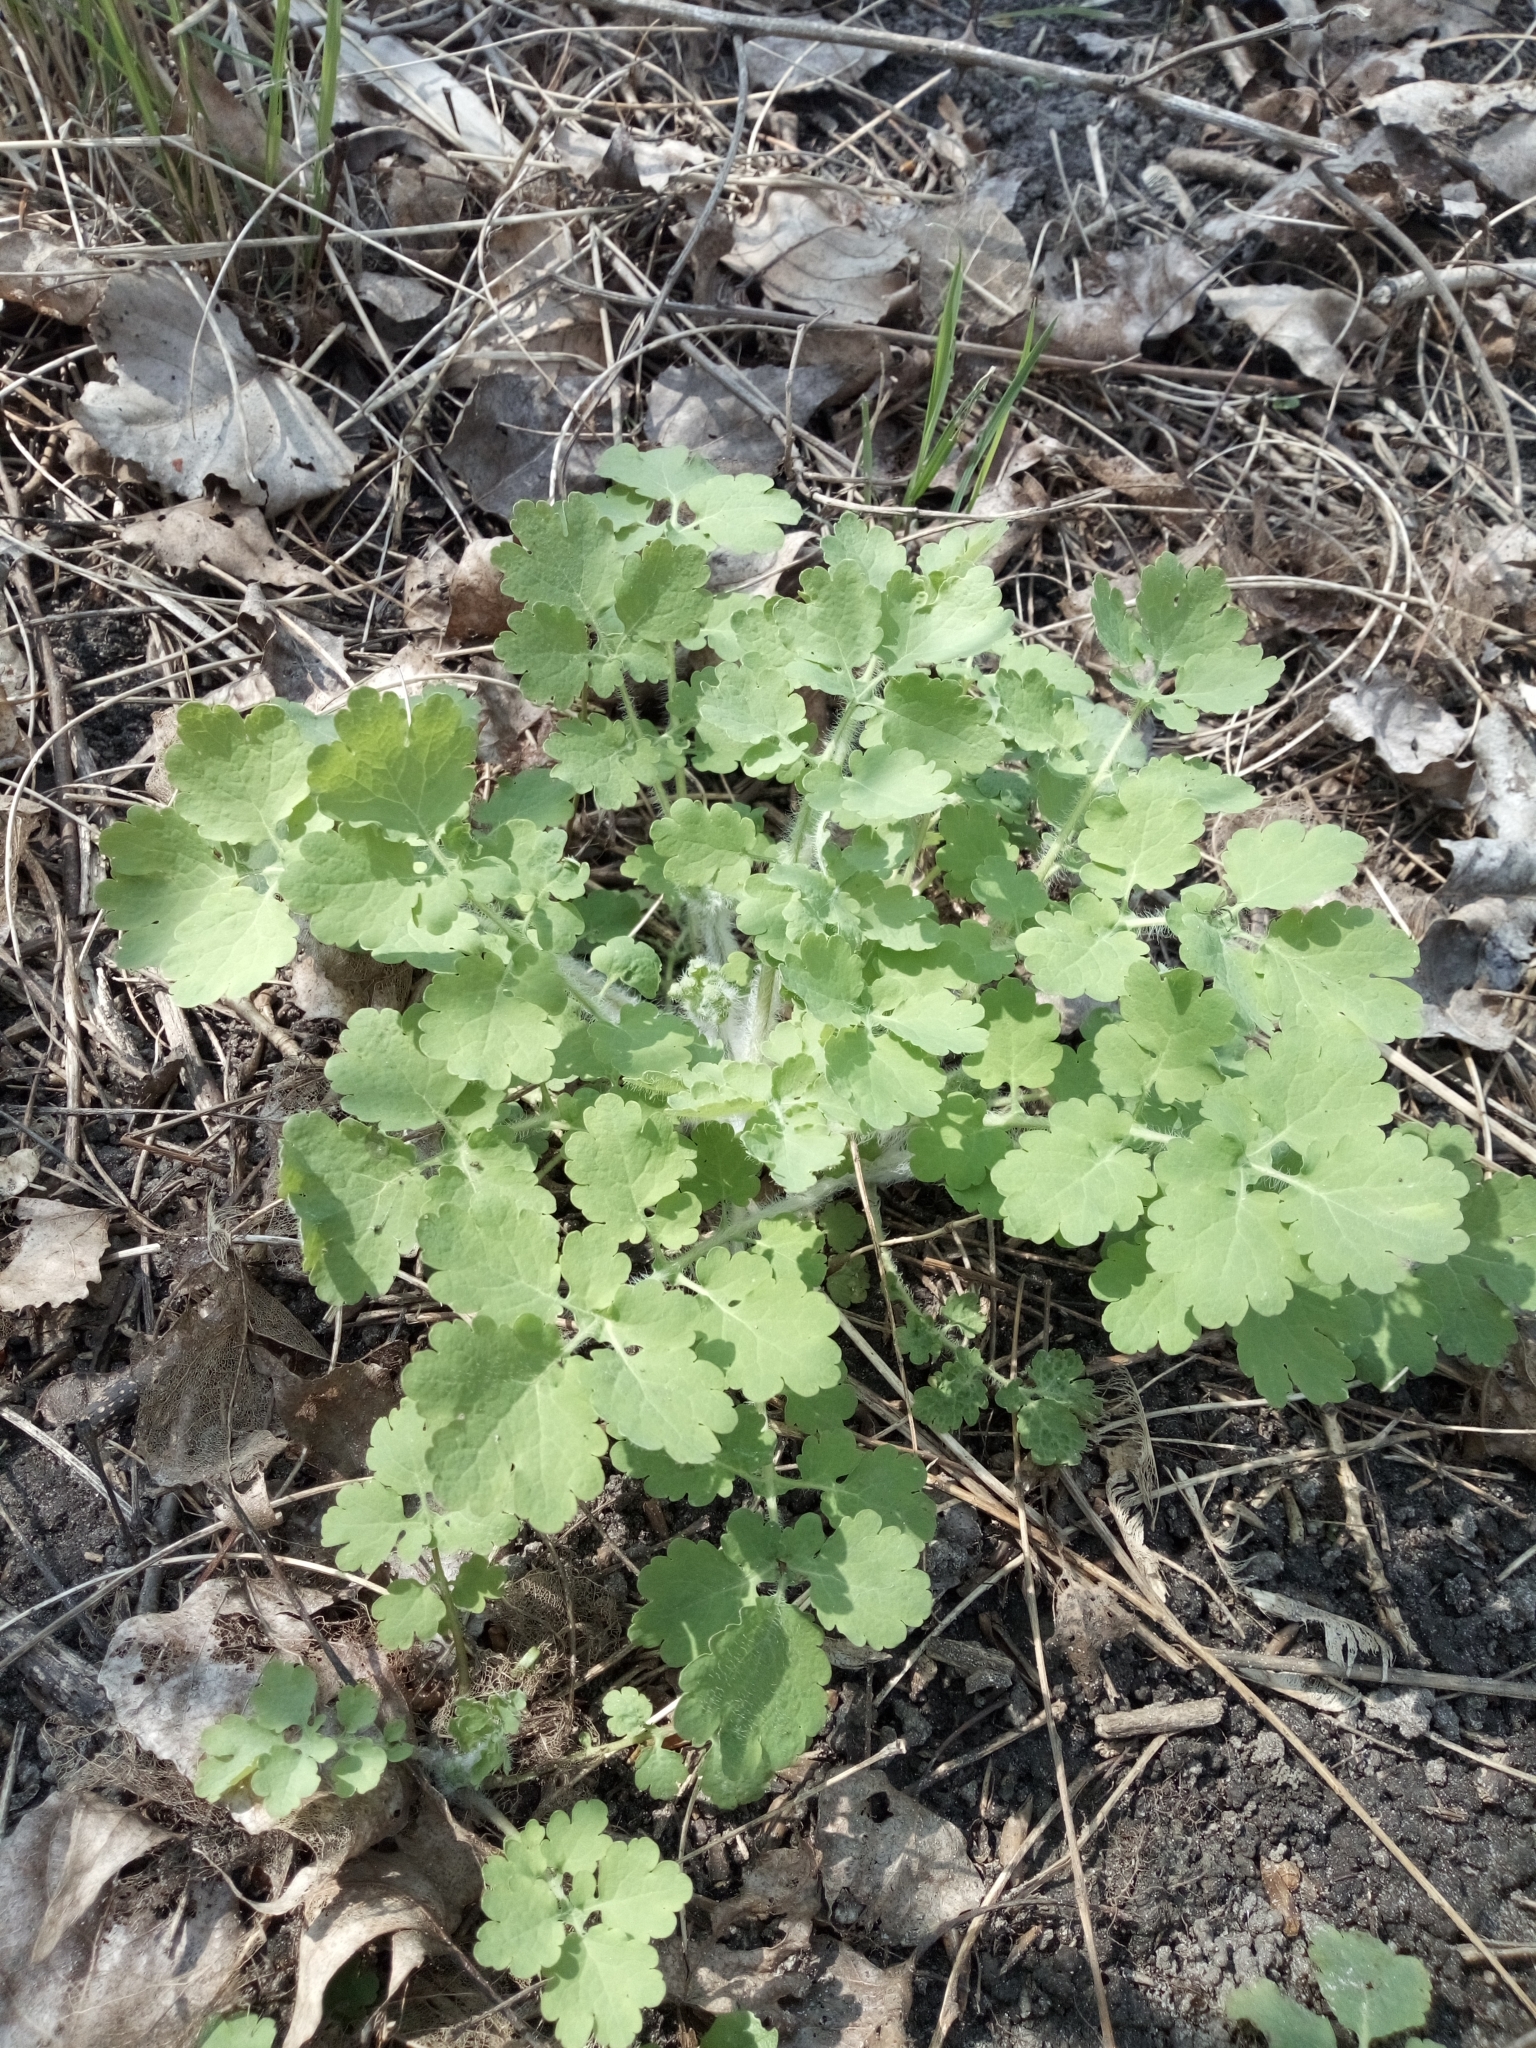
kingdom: Plantae
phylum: Tracheophyta
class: Magnoliopsida
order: Ranunculales
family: Papaveraceae
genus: Chelidonium
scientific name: Chelidonium majus
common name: Greater celandine
